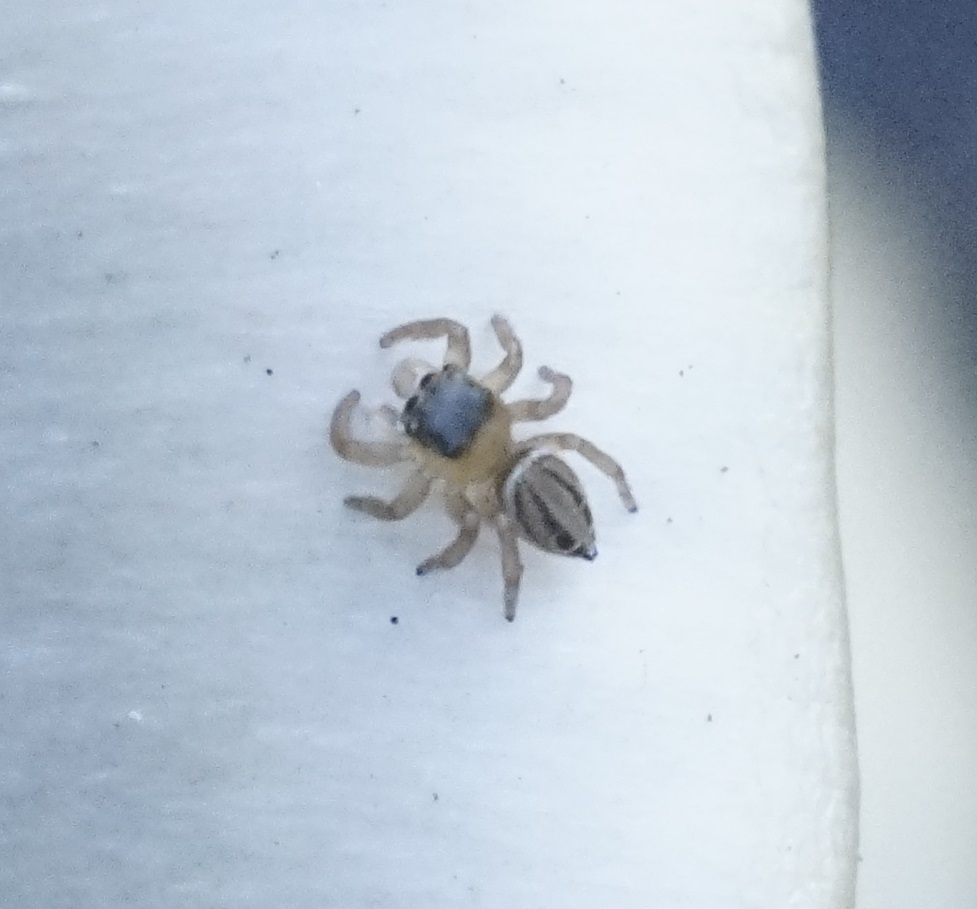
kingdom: Animalia
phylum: Arthropoda
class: Arachnida
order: Araneae
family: Salticidae
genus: Maratus
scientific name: Maratus scutulatus
